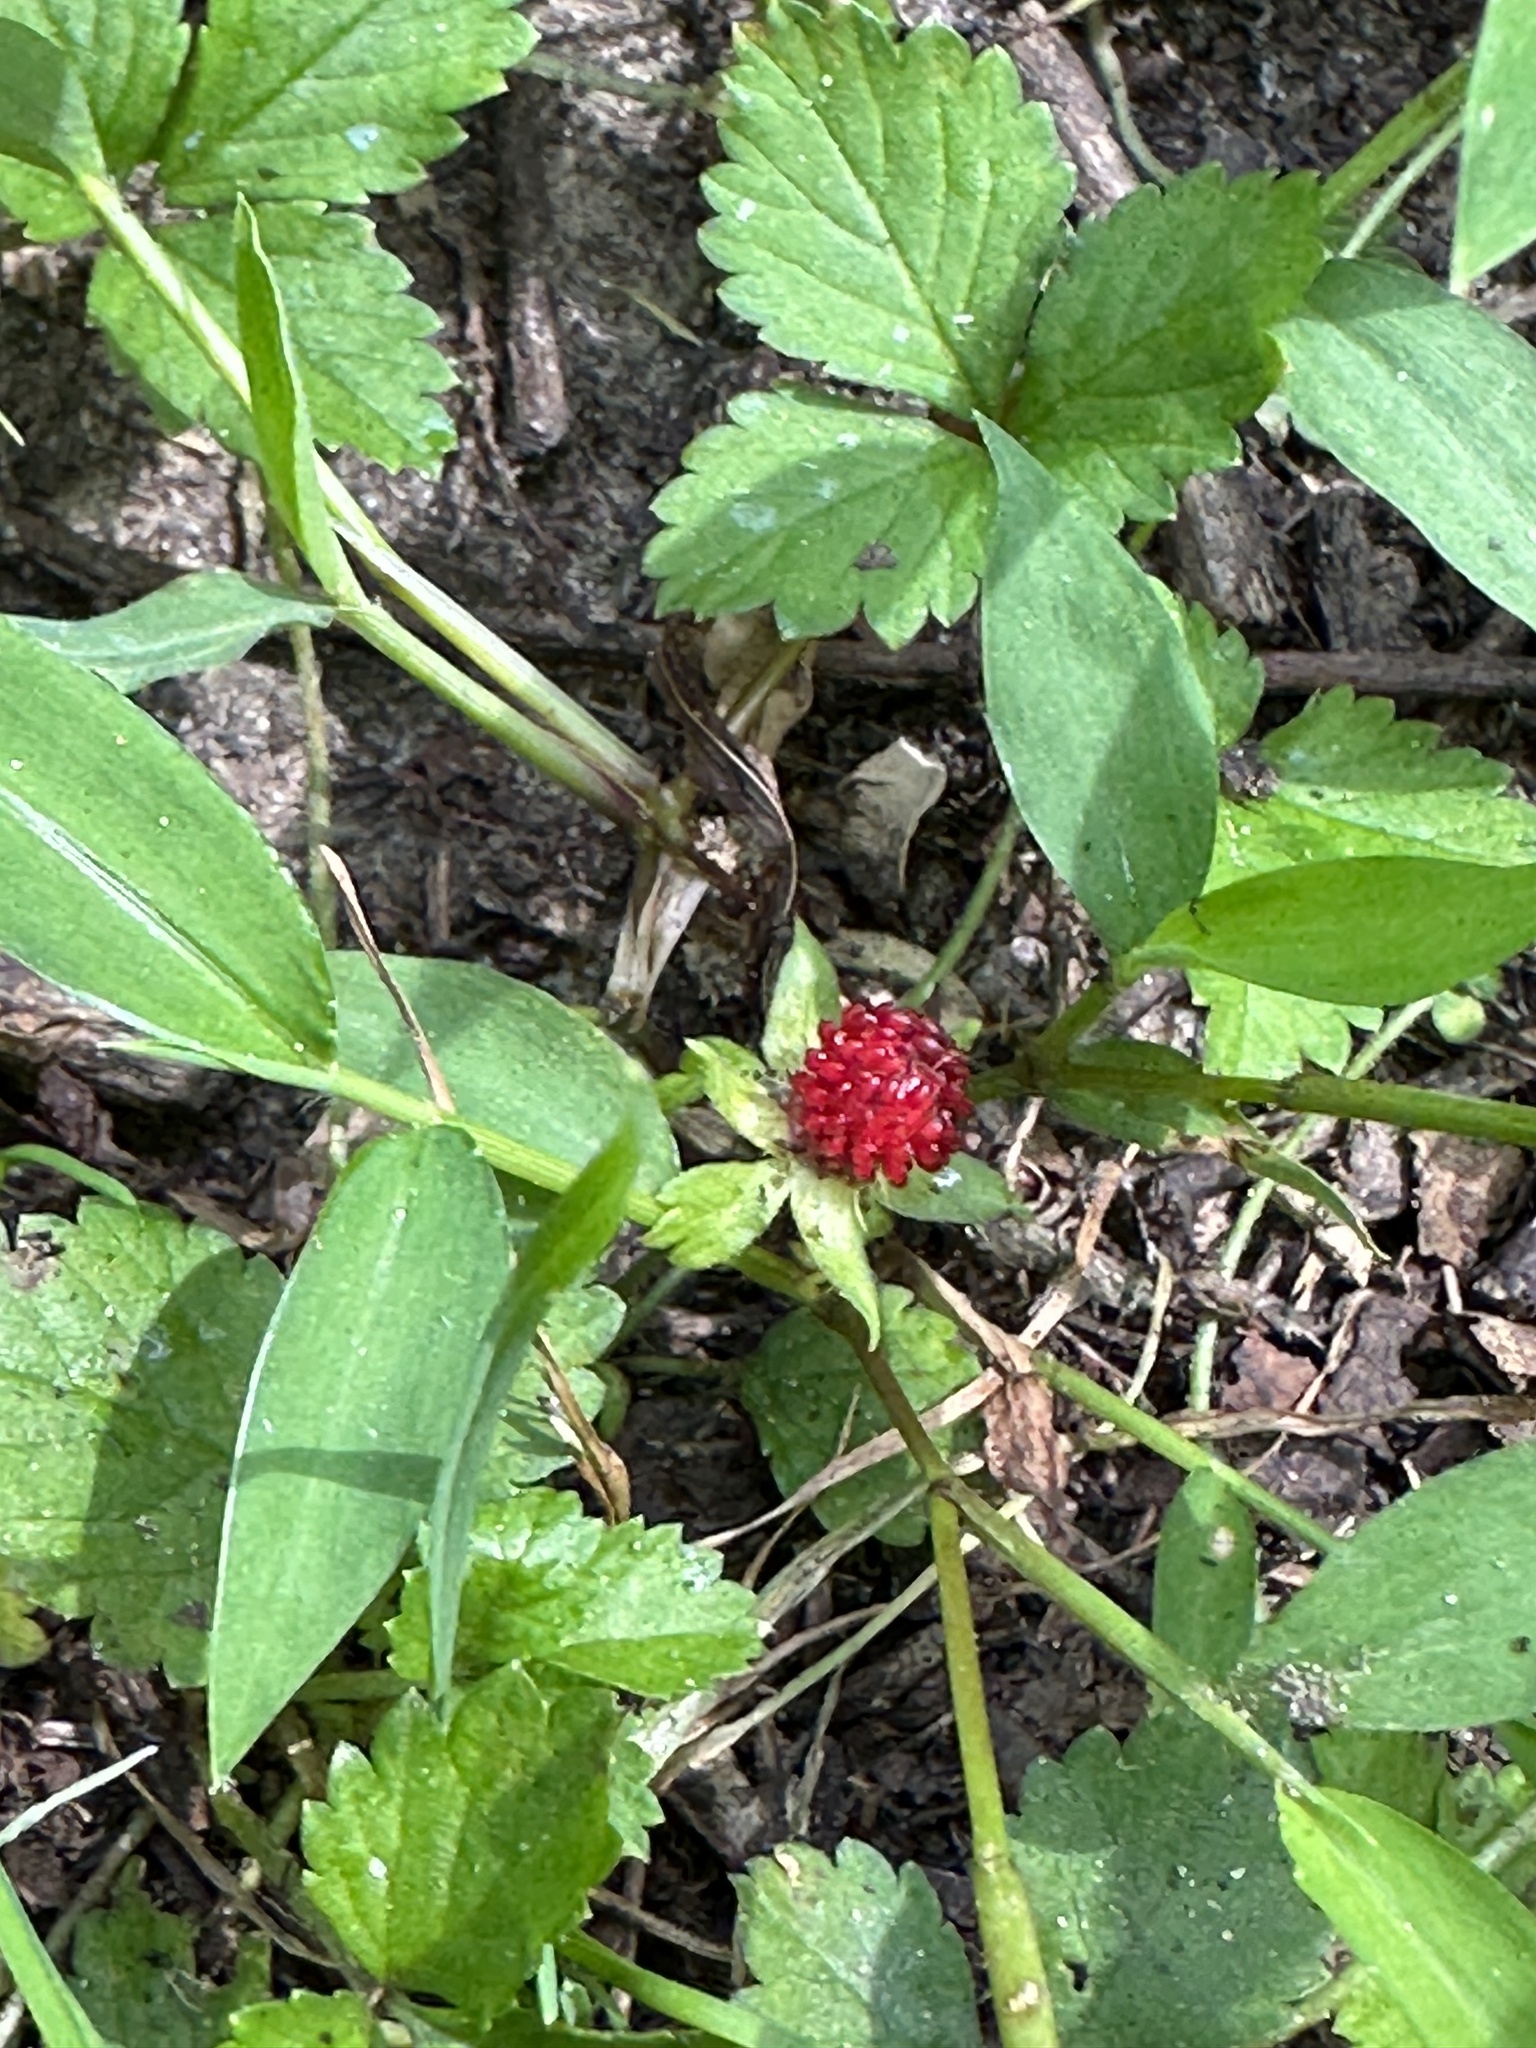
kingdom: Plantae
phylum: Tracheophyta
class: Magnoliopsida
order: Rosales
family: Rosaceae
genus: Potentilla
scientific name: Potentilla indica
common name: Yellow-flowered strawberry
